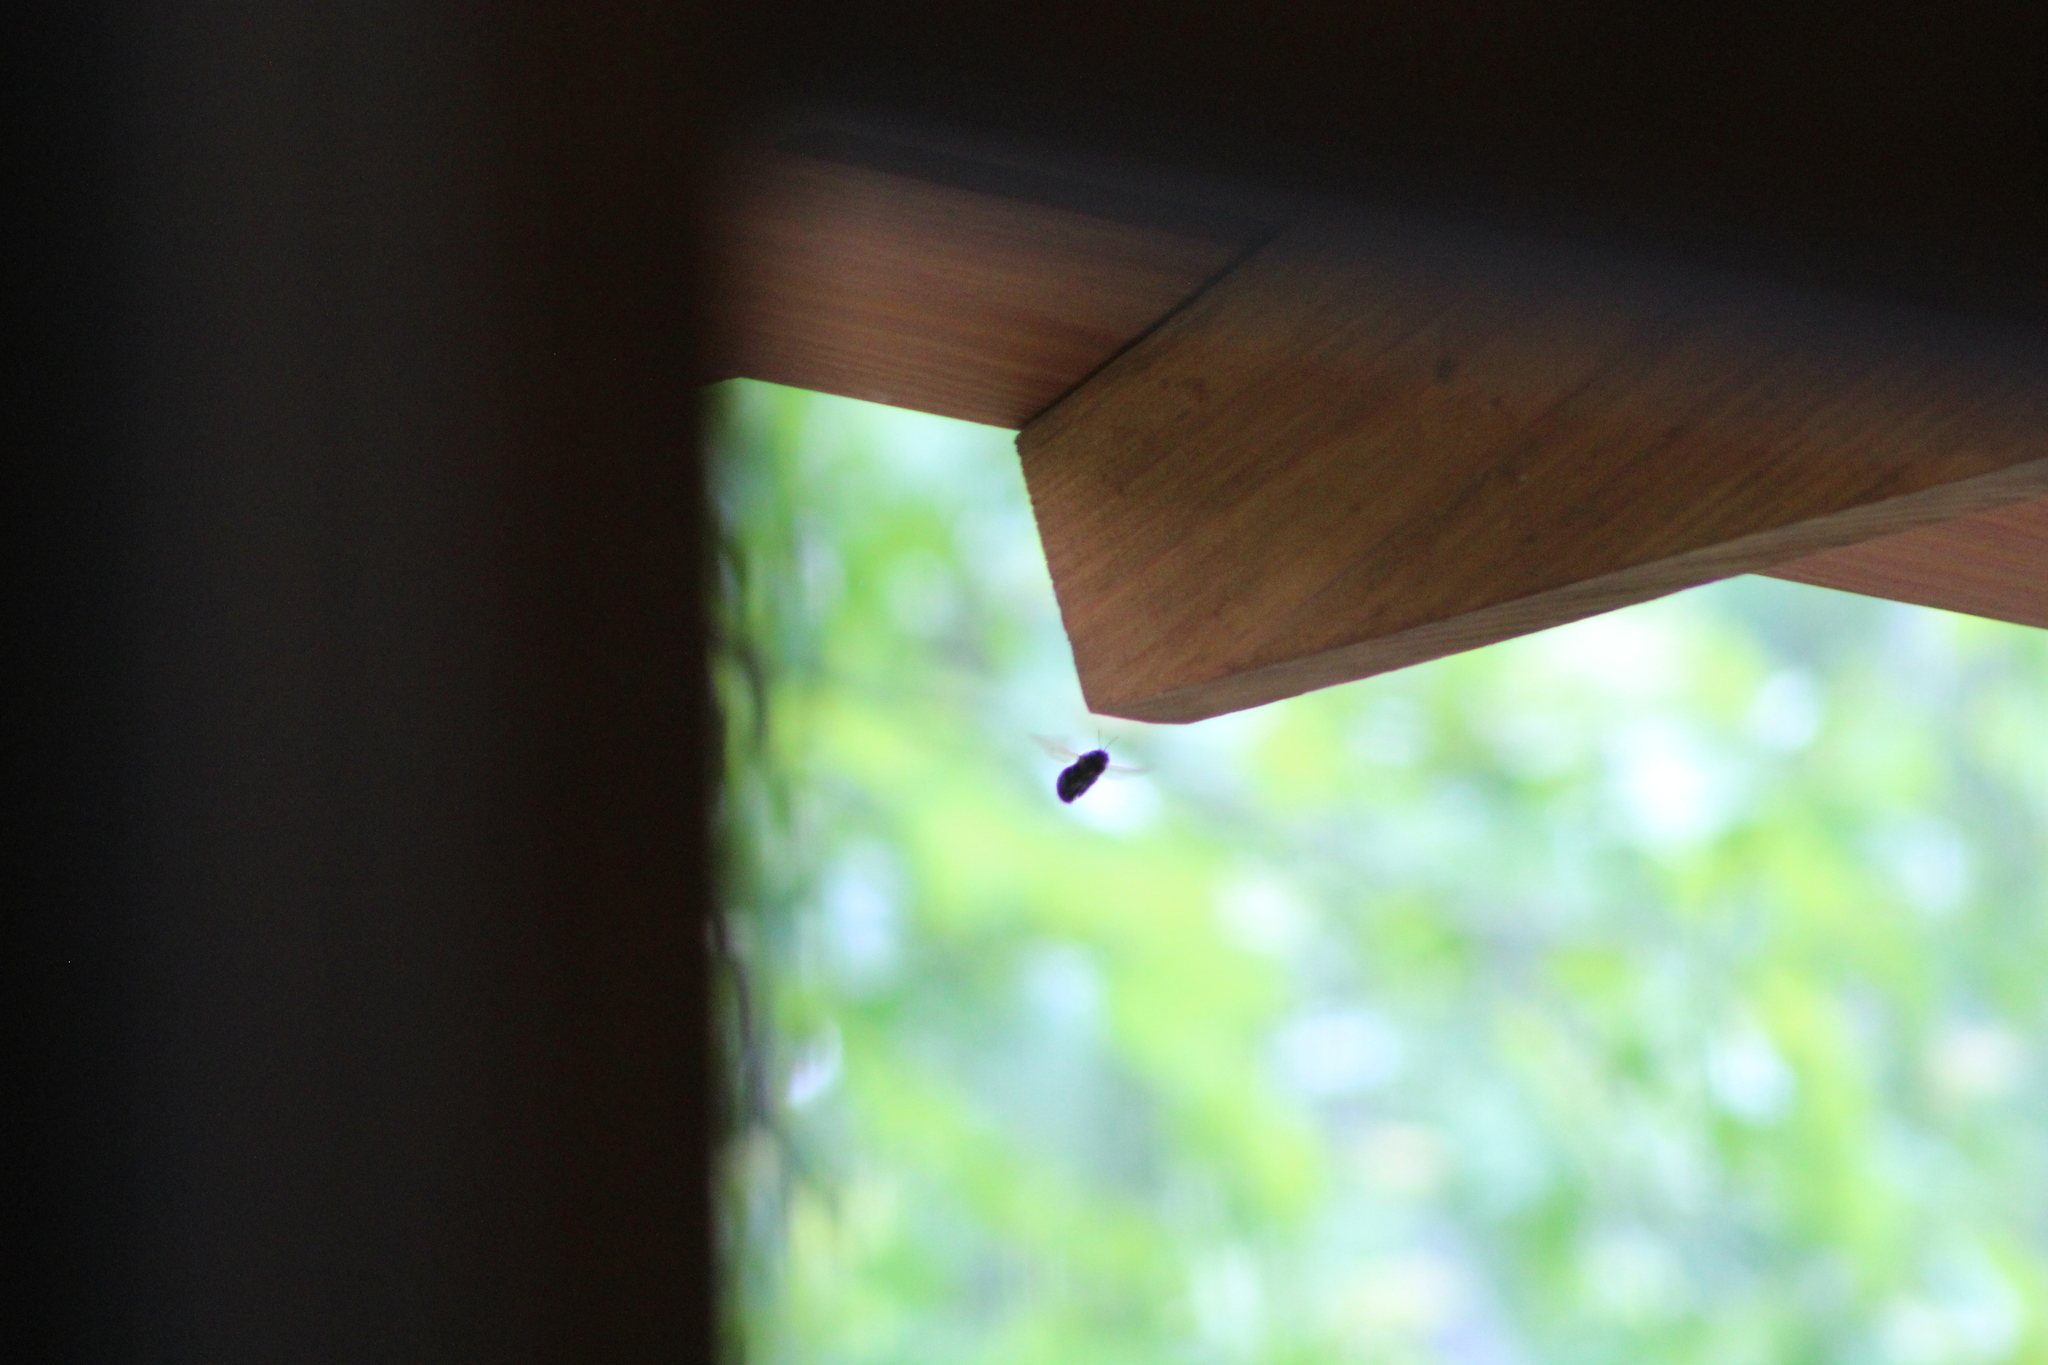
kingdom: Animalia
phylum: Arthropoda
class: Insecta
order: Hymenoptera
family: Apidae
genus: Xylocopa
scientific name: Xylocopa virginica
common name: Carpenter bee
